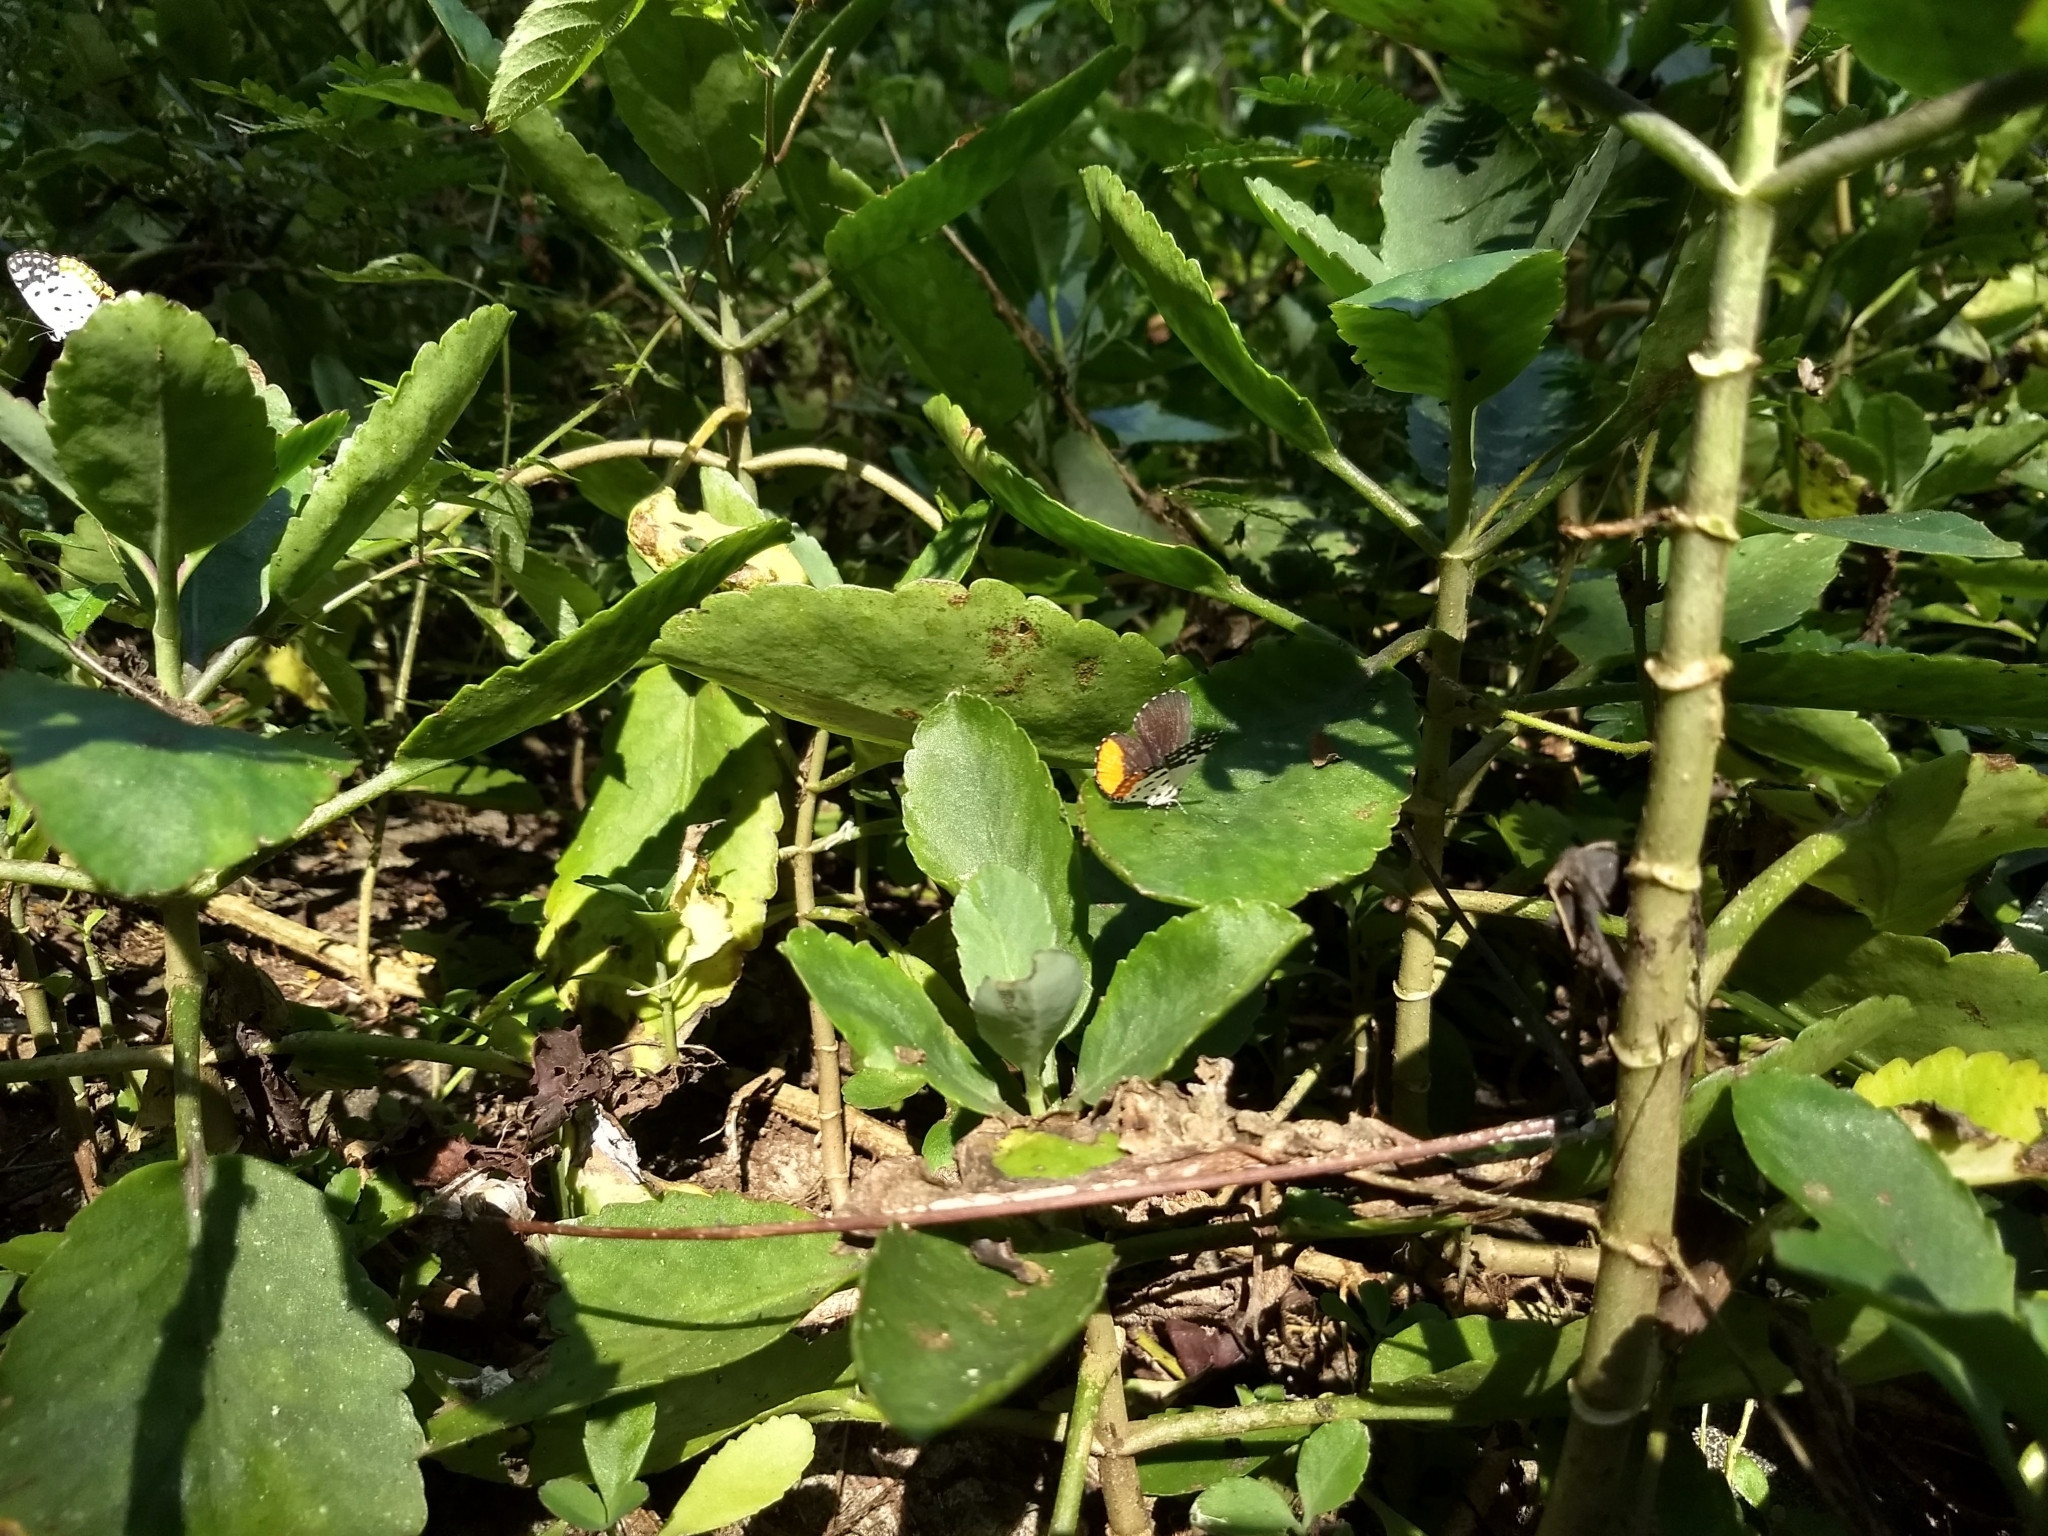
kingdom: Animalia
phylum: Arthropoda
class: Insecta
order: Lepidoptera
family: Lycaenidae
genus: Talicada
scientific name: Talicada nyseus
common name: Red pierrot
